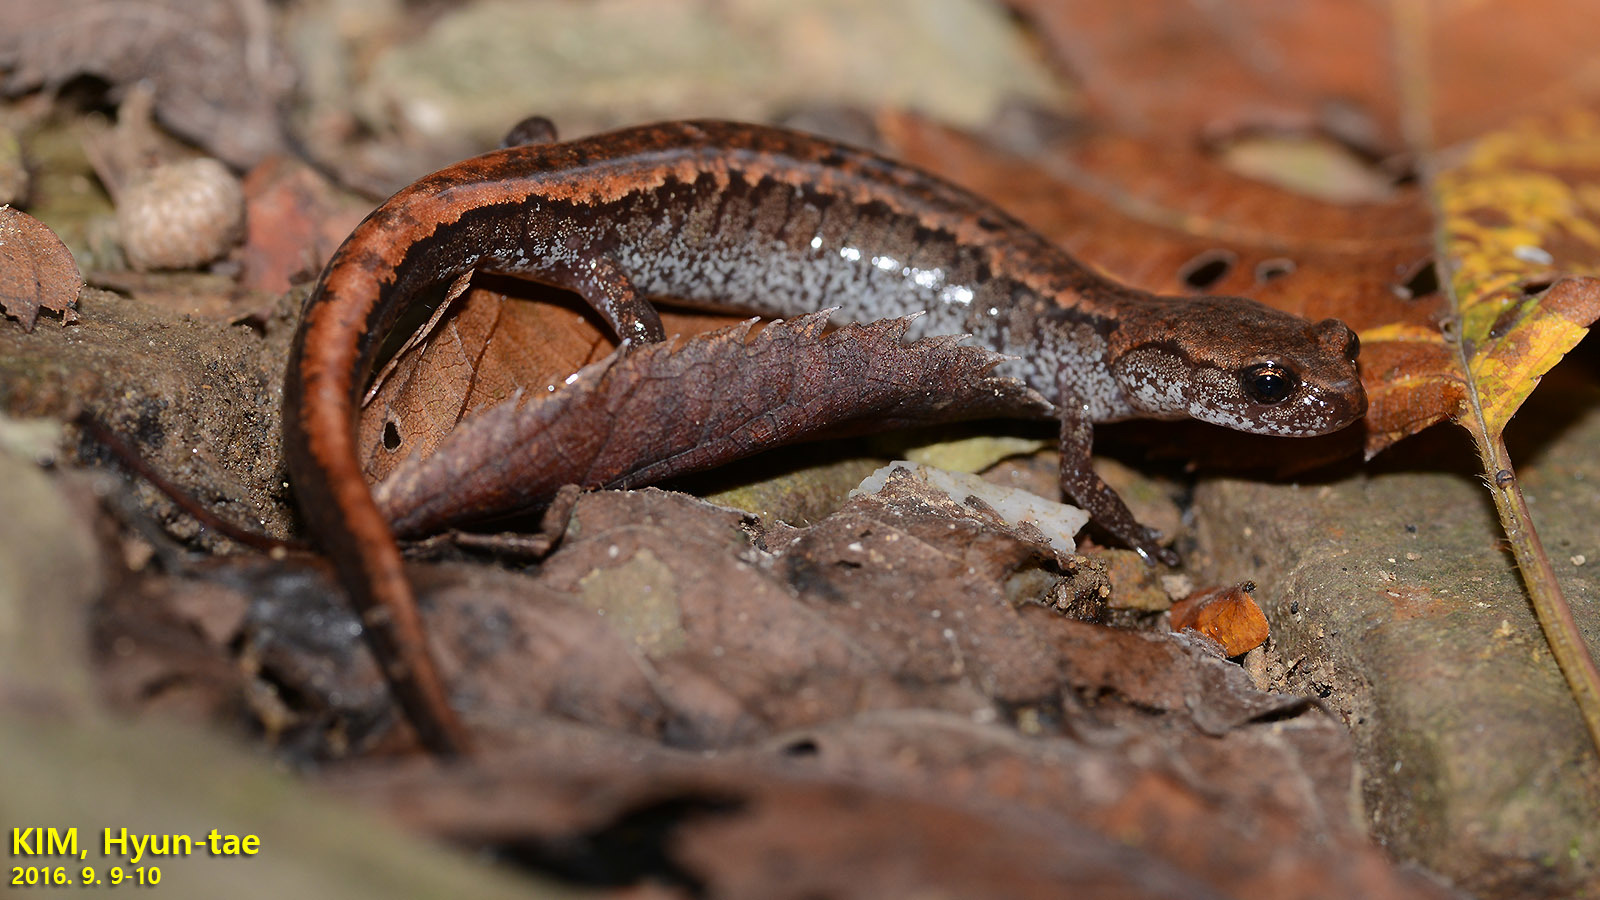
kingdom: Animalia
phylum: Chordata
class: Amphibia
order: Caudata
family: Plethodontidae
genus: Karsenia
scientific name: Karsenia koreana
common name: Korean crevice salamander
